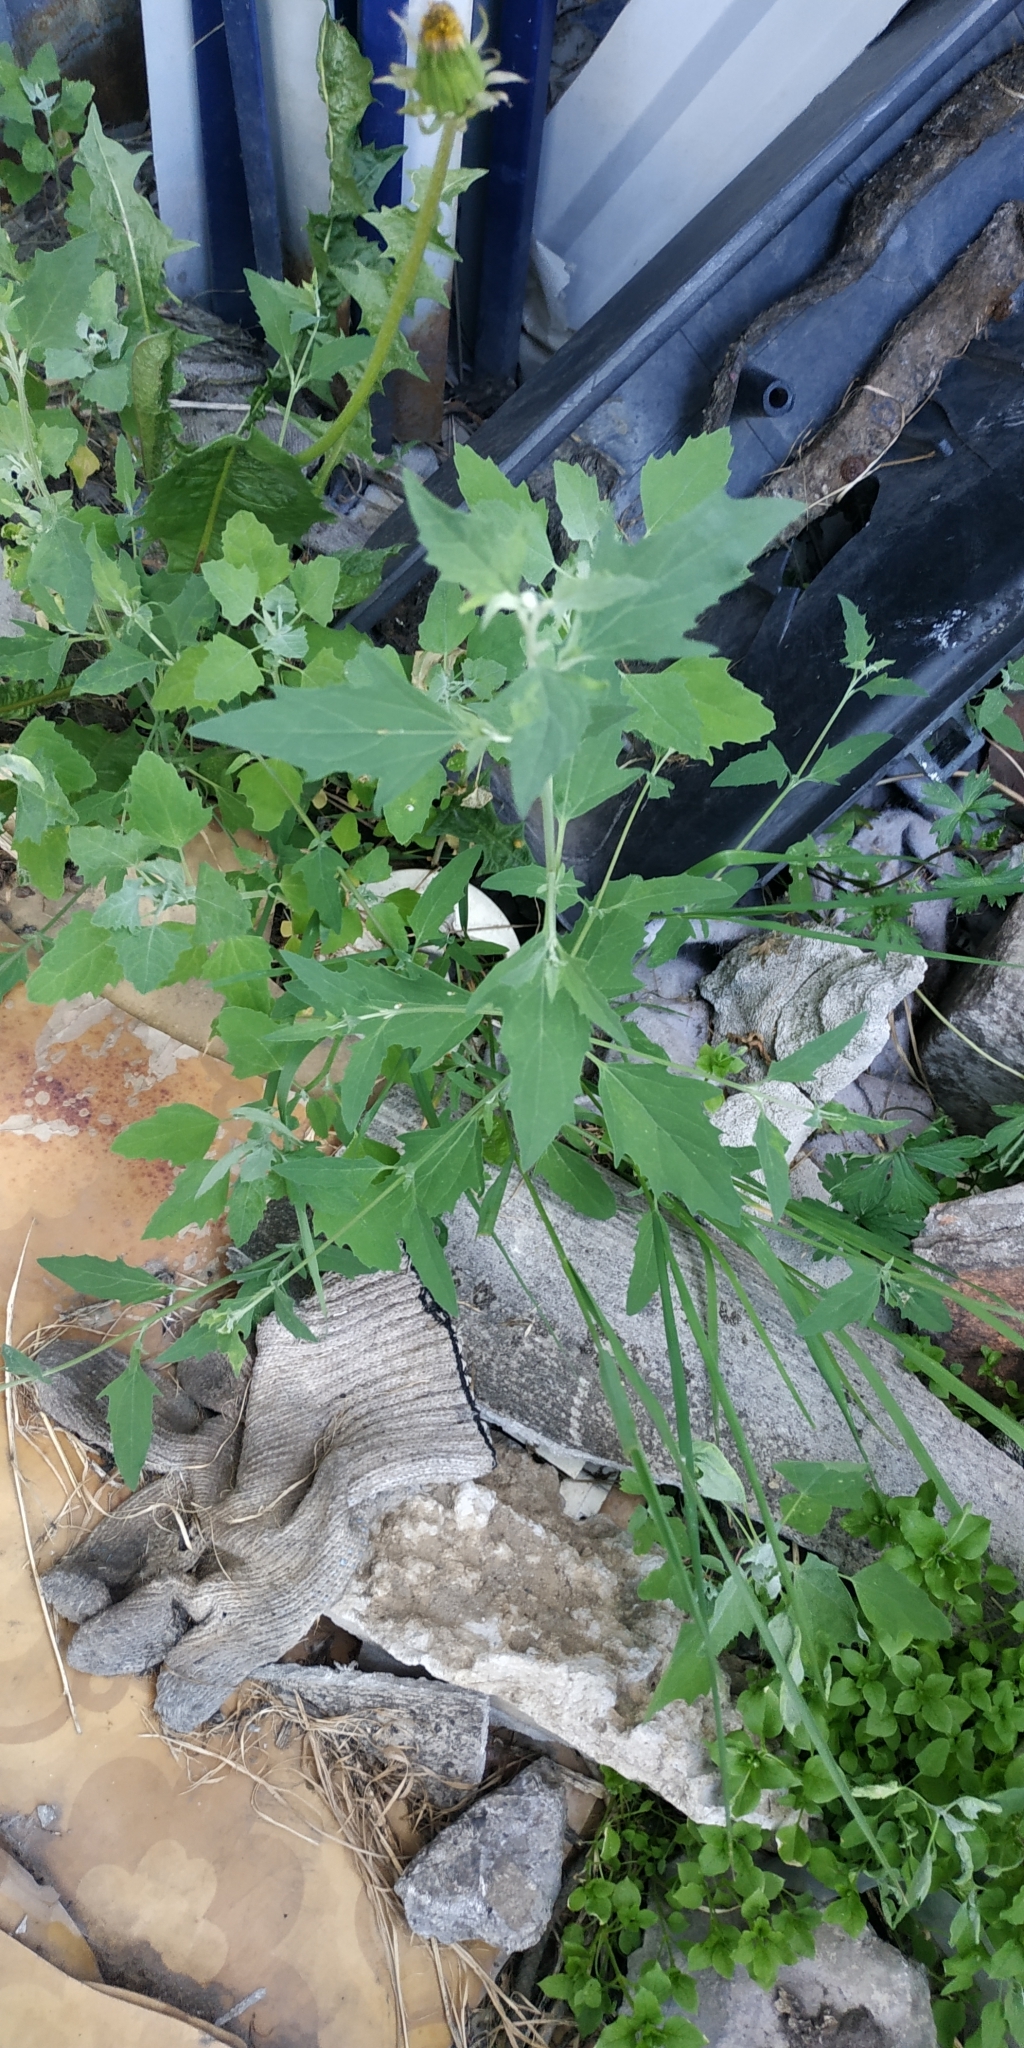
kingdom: Plantae
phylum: Tracheophyta
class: Magnoliopsida
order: Caryophyllales
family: Amaranthaceae
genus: Atriplex
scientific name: Atriplex patula
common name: Common orache
